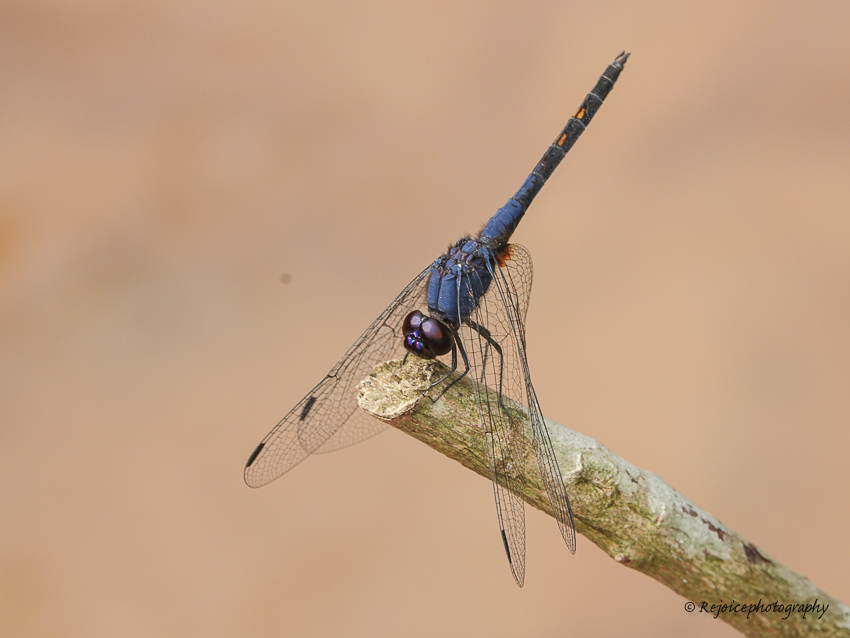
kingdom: Animalia
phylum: Arthropoda
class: Insecta
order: Odonata
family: Libellulidae
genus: Trithemis
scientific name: Trithemis festiva
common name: Indigo dropwing
